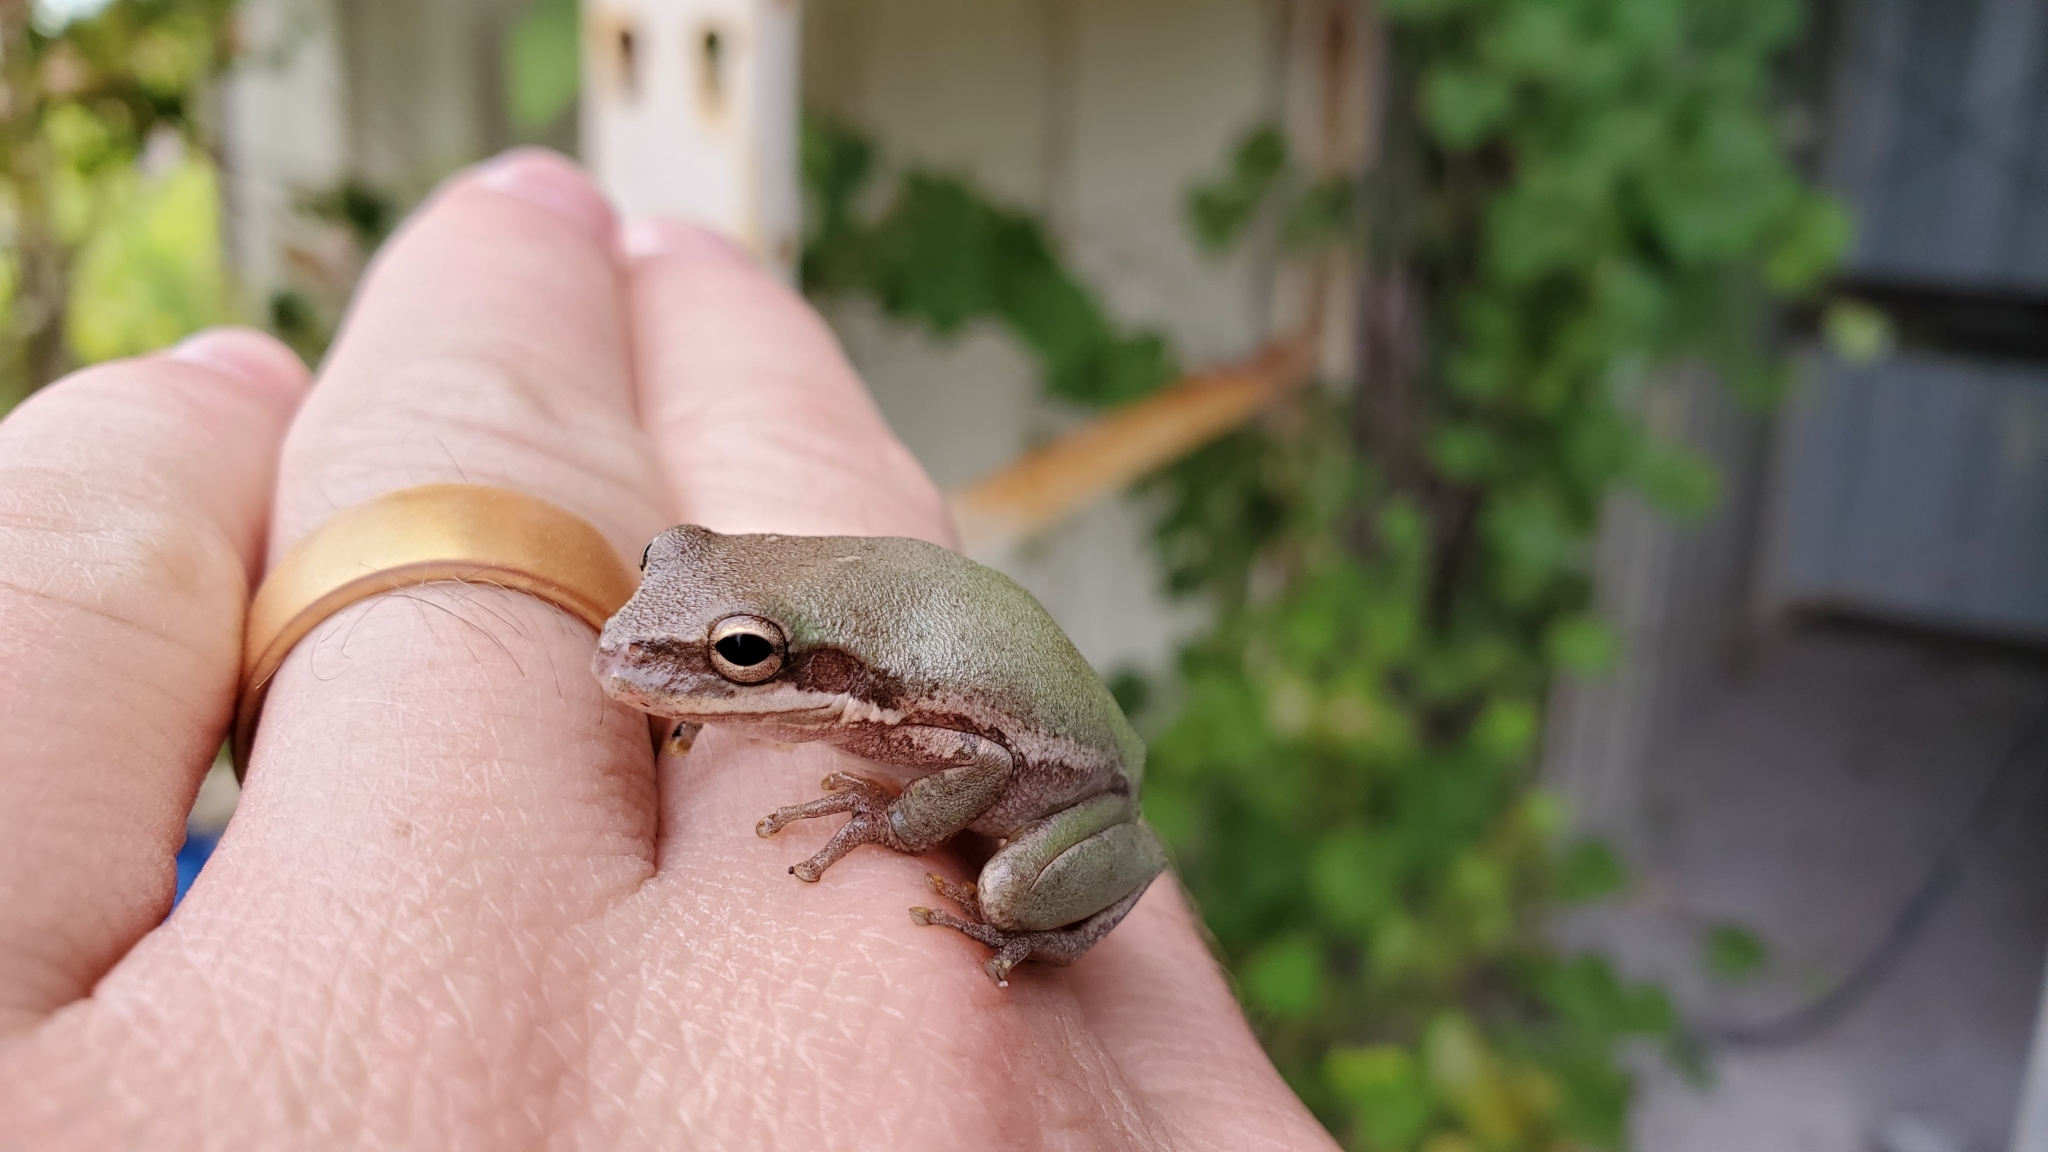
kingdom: Animalia
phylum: Chordata
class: Amphibia
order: Anura
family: Hylidae
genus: Dryophytes
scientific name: Dryophytes squirellus
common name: Squirrel treefrog
